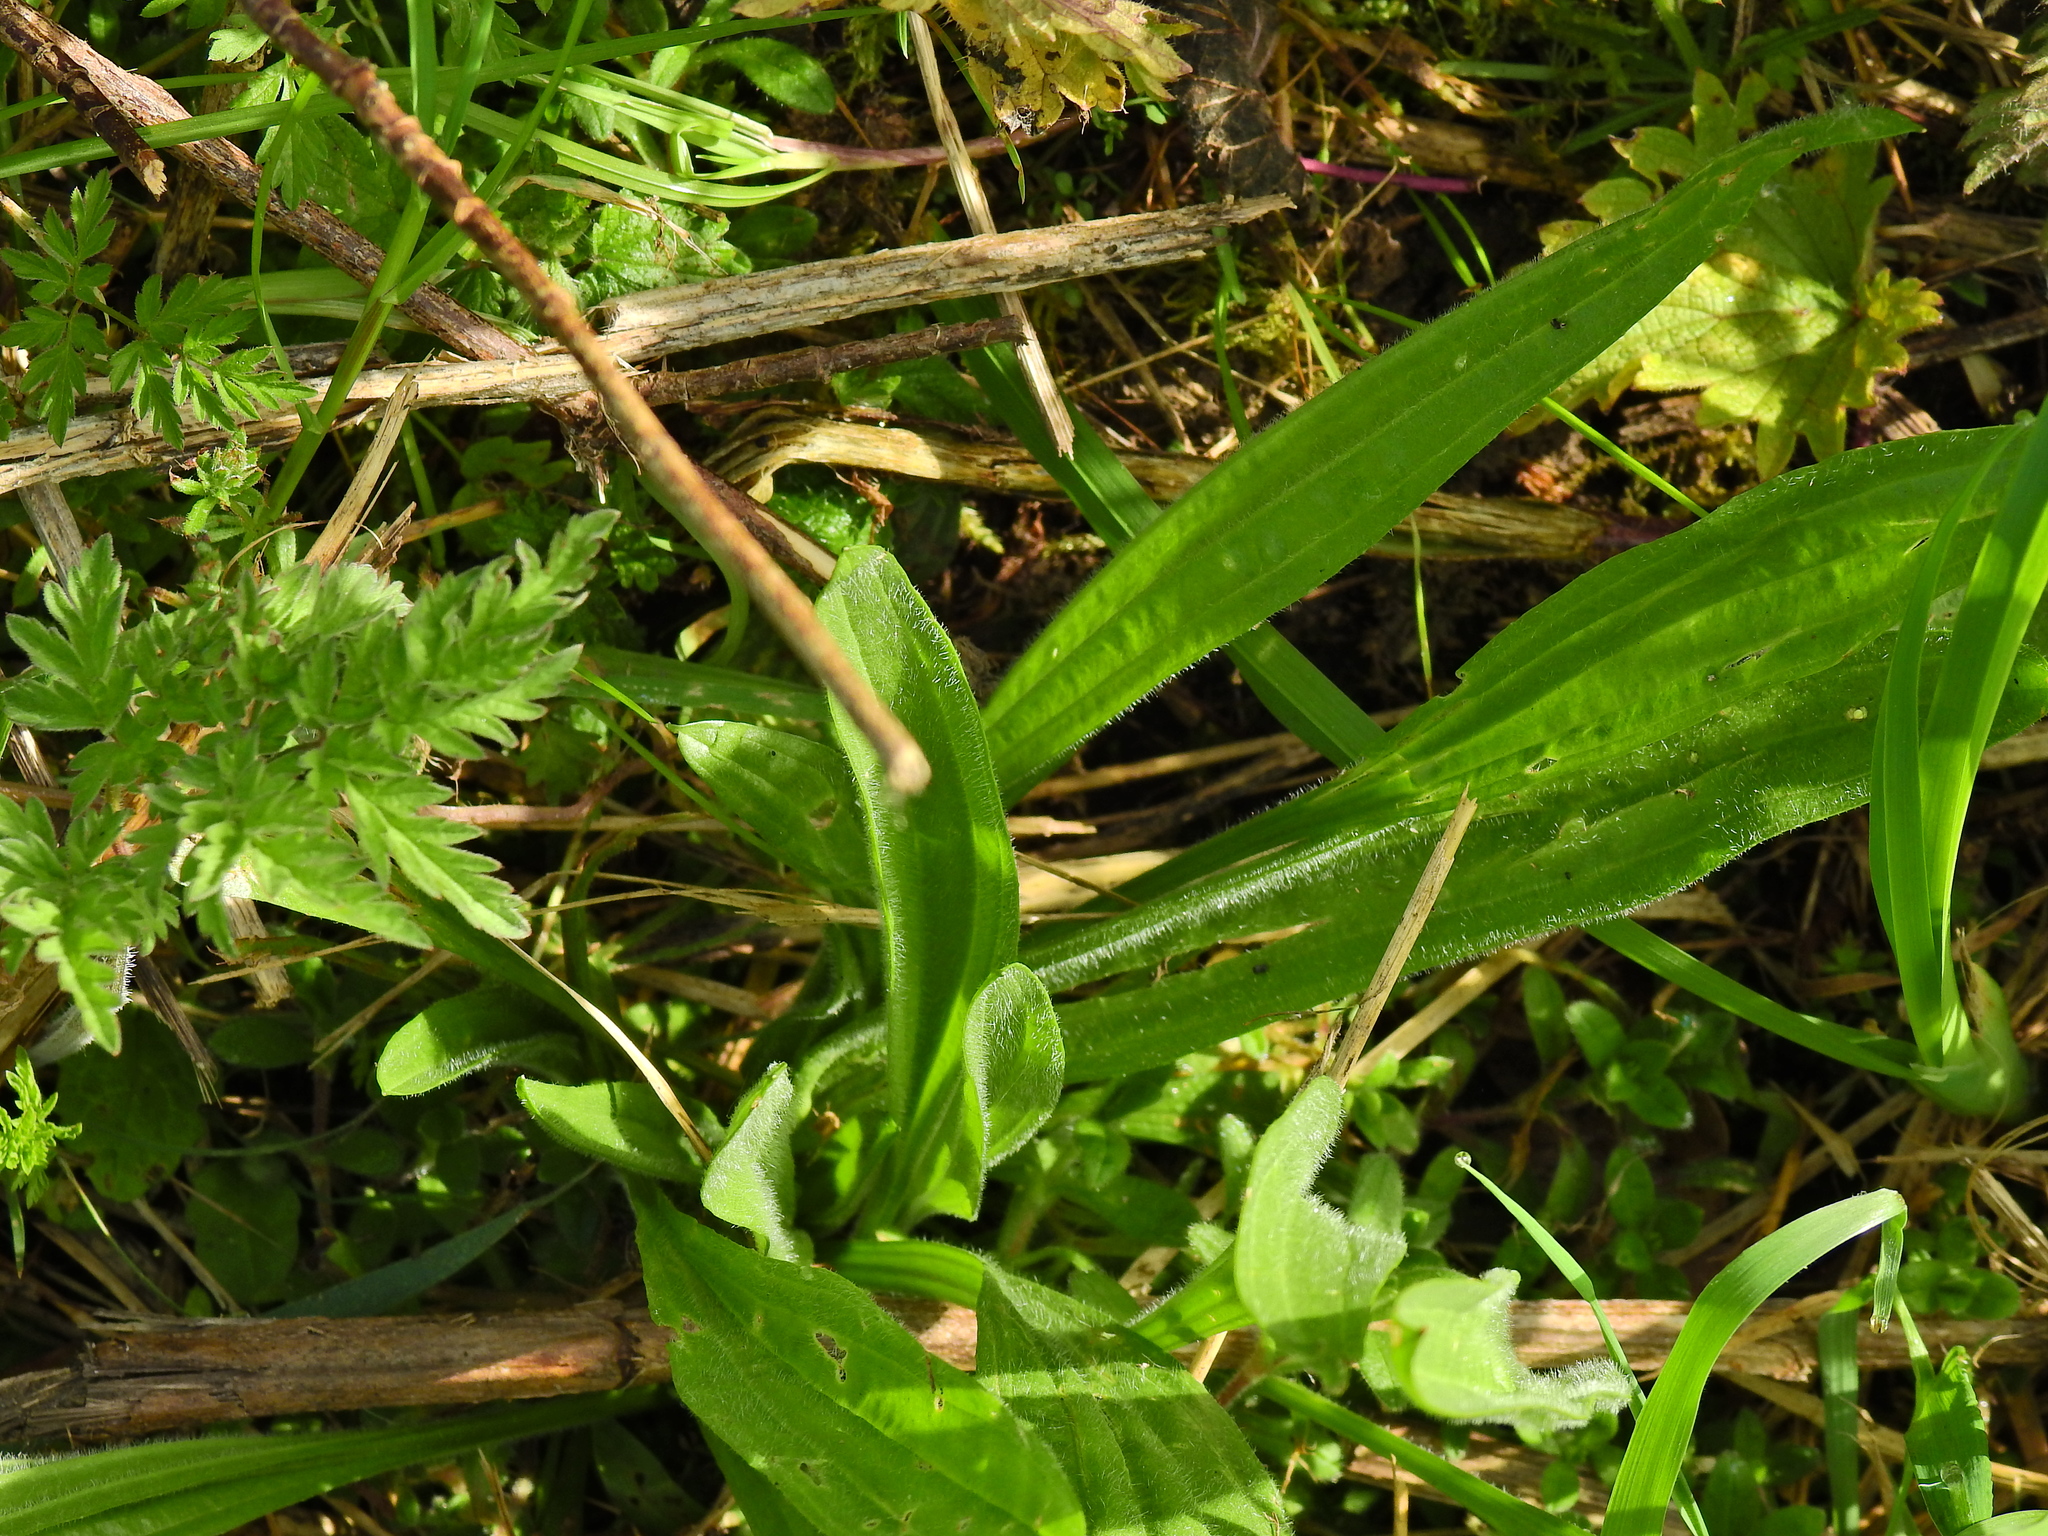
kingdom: Plantae
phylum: Tracheophyta
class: Magnoliopsida
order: Lamiales
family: Plantaginaceae
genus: Plantago
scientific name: Plantago lanceolata
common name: Ribwort plantain
